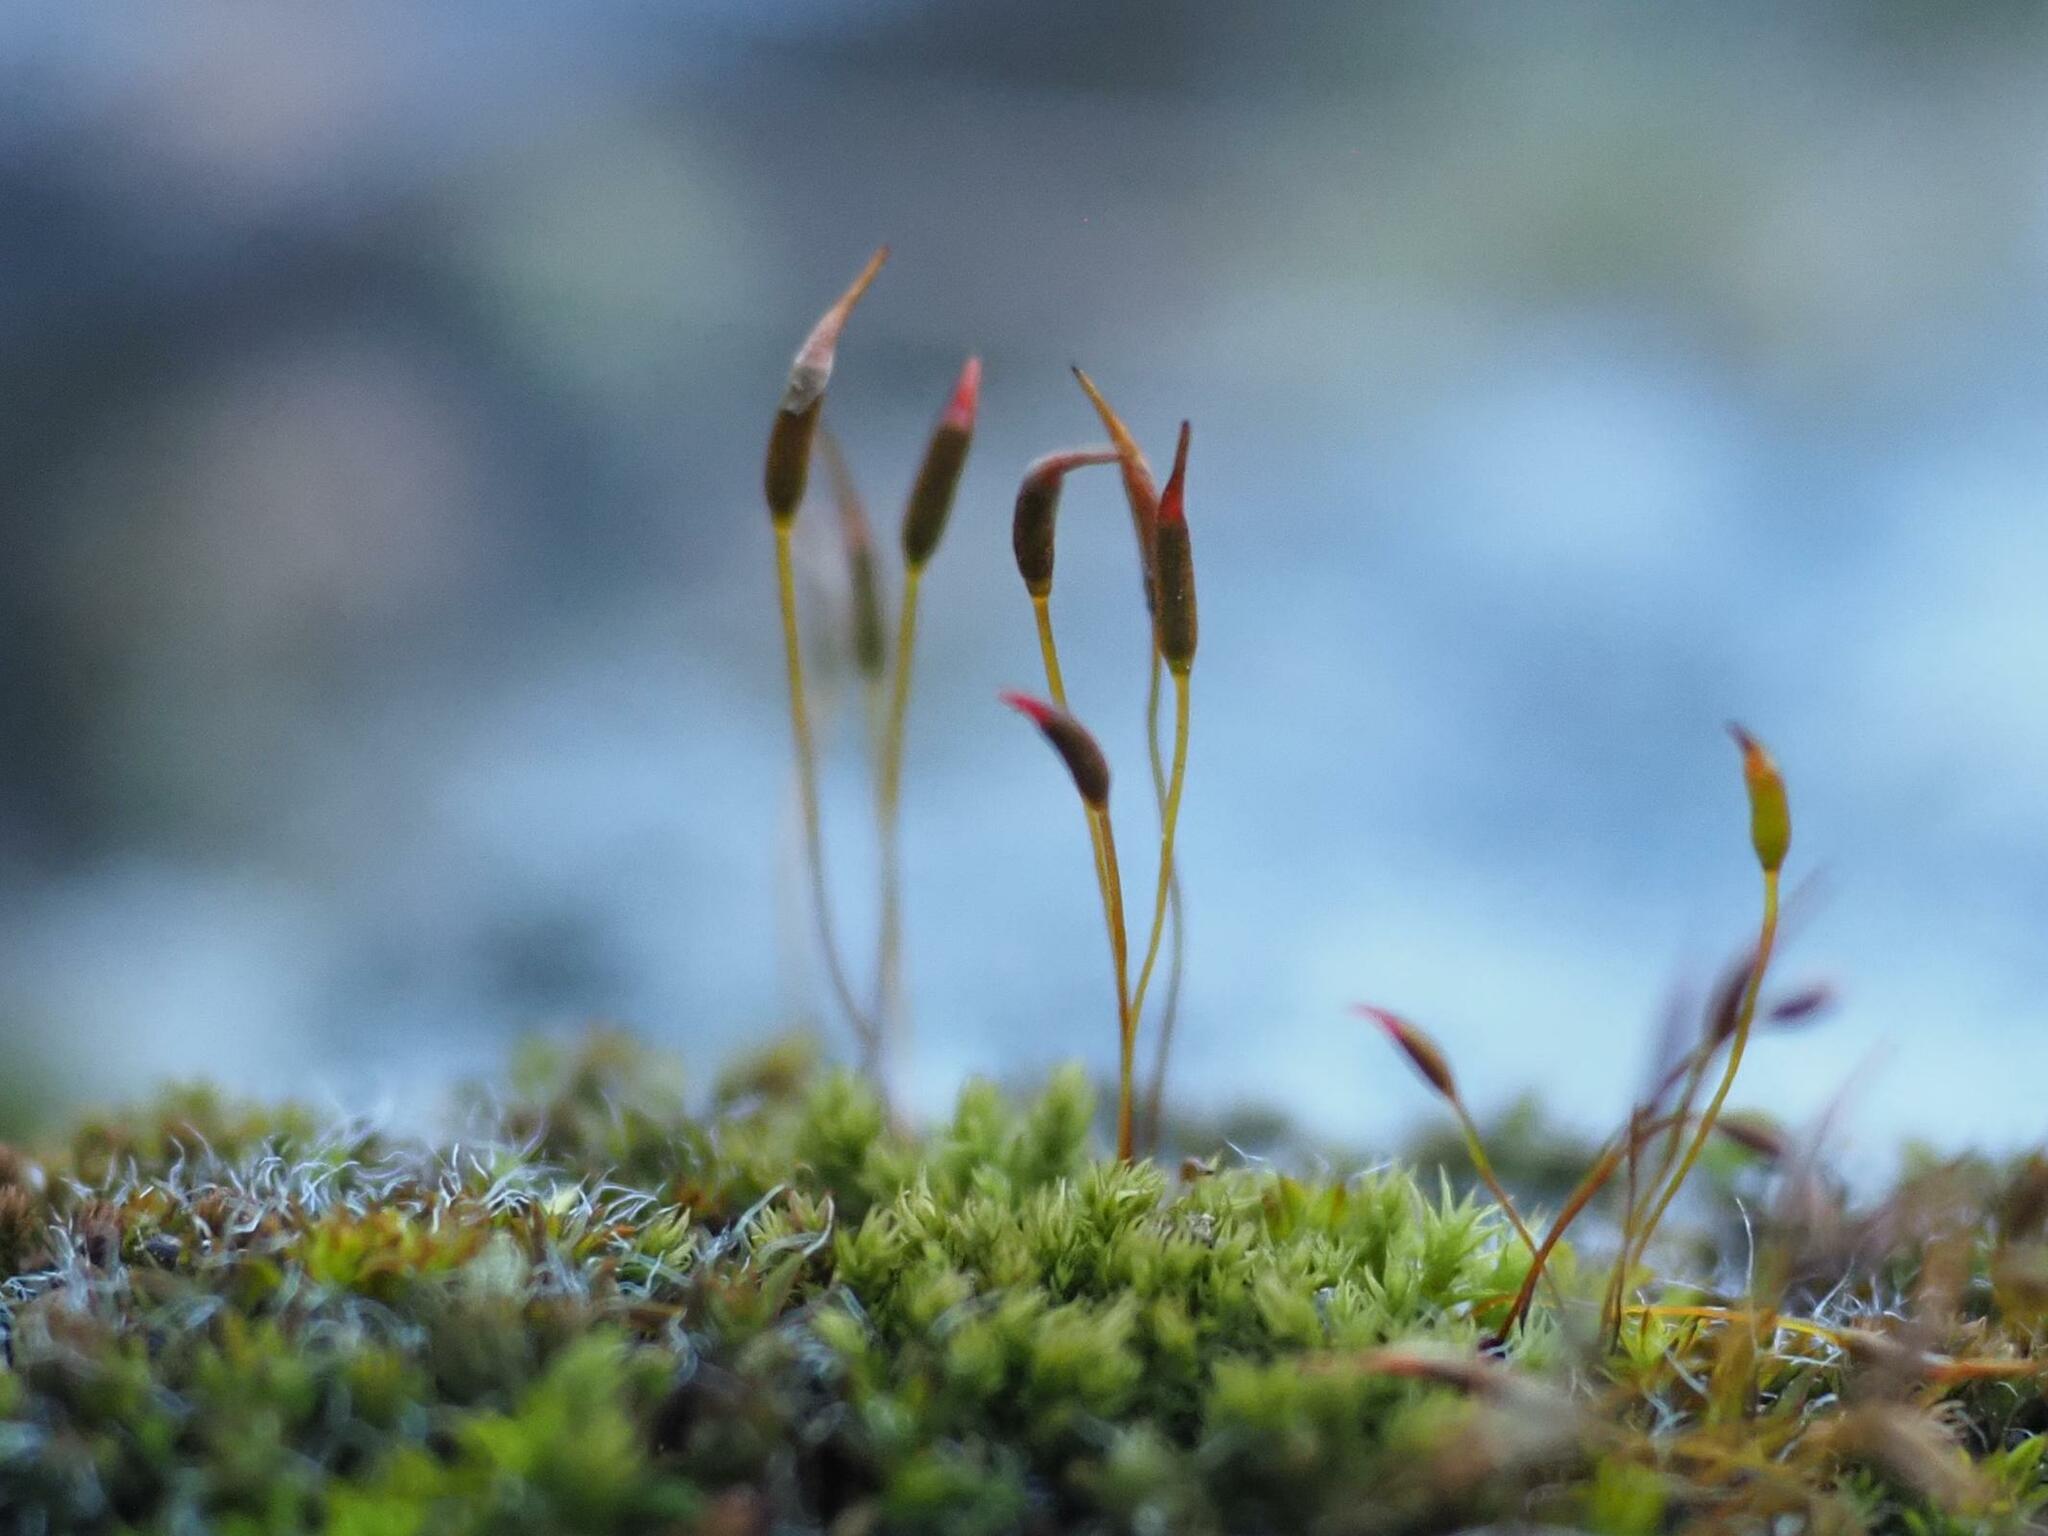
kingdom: Plantae
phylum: Bryophyta
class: Bryopsida
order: Pottiales
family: Pottiaceae
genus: Tortula
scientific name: Tortula muralis
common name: Wall screw-moss
